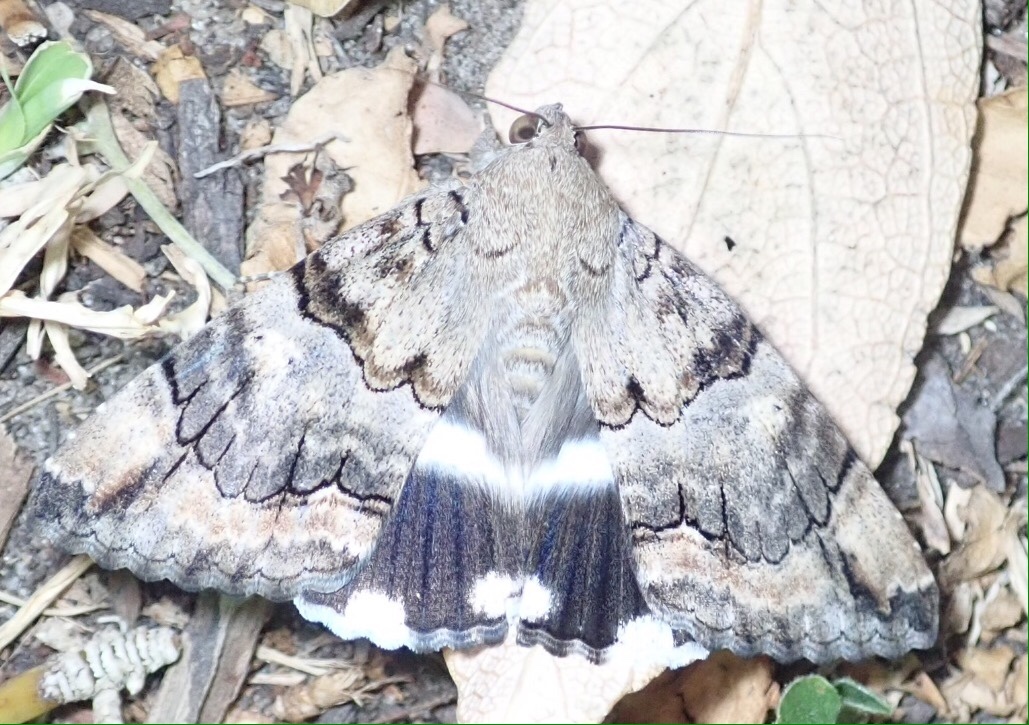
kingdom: Animalia
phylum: Arthropoda
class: Insecta
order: Lepidoptera
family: Erebidae
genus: Achaea
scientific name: Achaea catella
